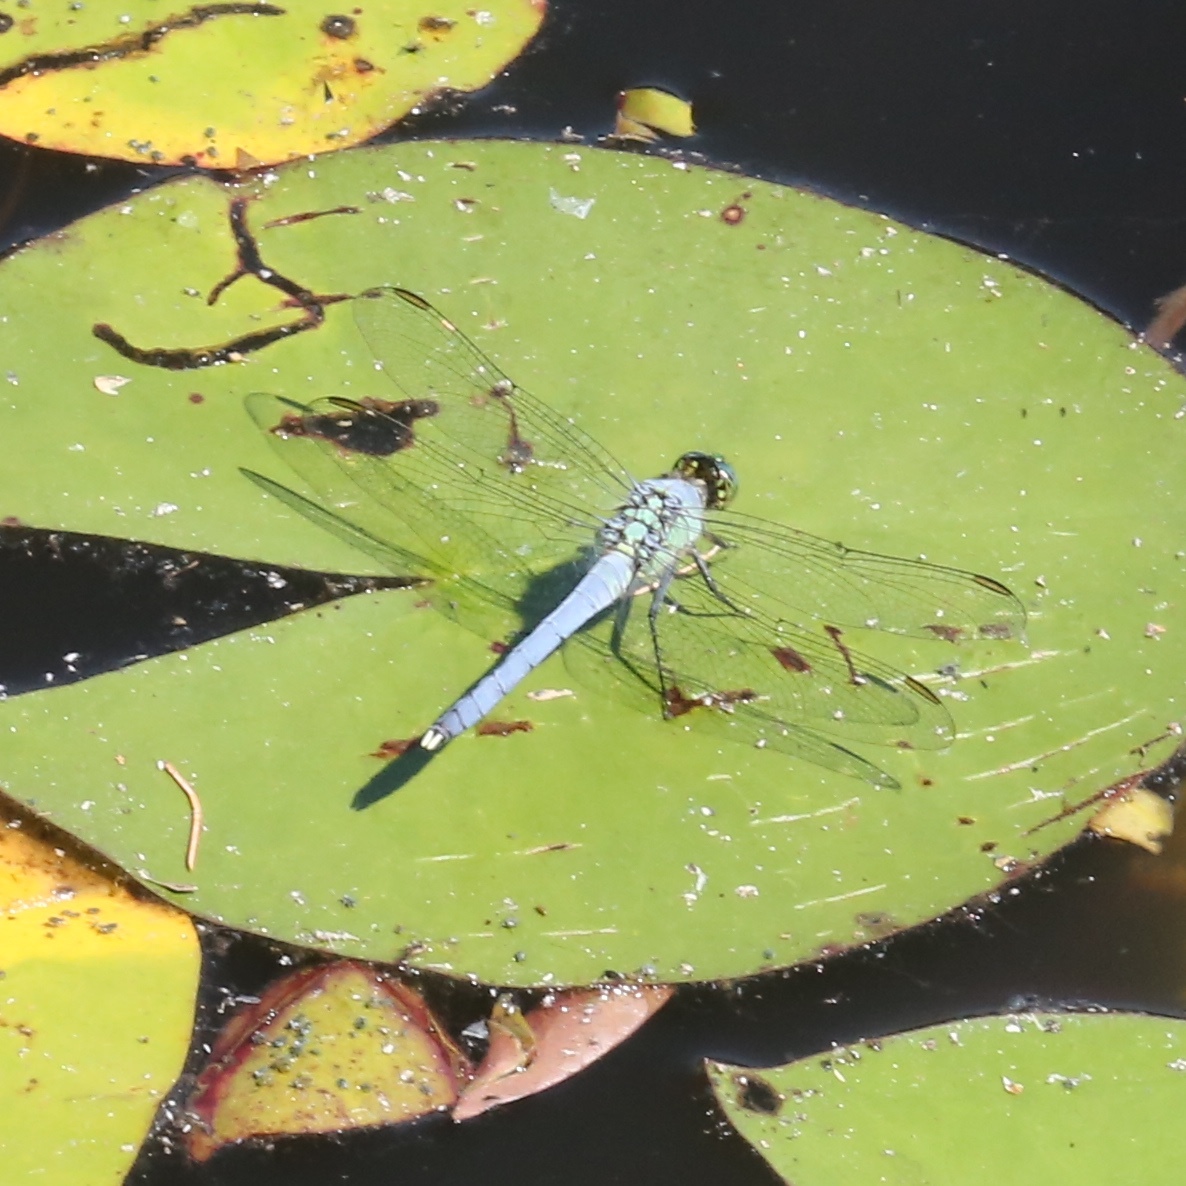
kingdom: Animalia
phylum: Arthropoda
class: Insecta
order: Odonata
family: Libellulidae
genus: Erythemis
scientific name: Erythemis simplicicollis
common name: Eastern pondhawk
